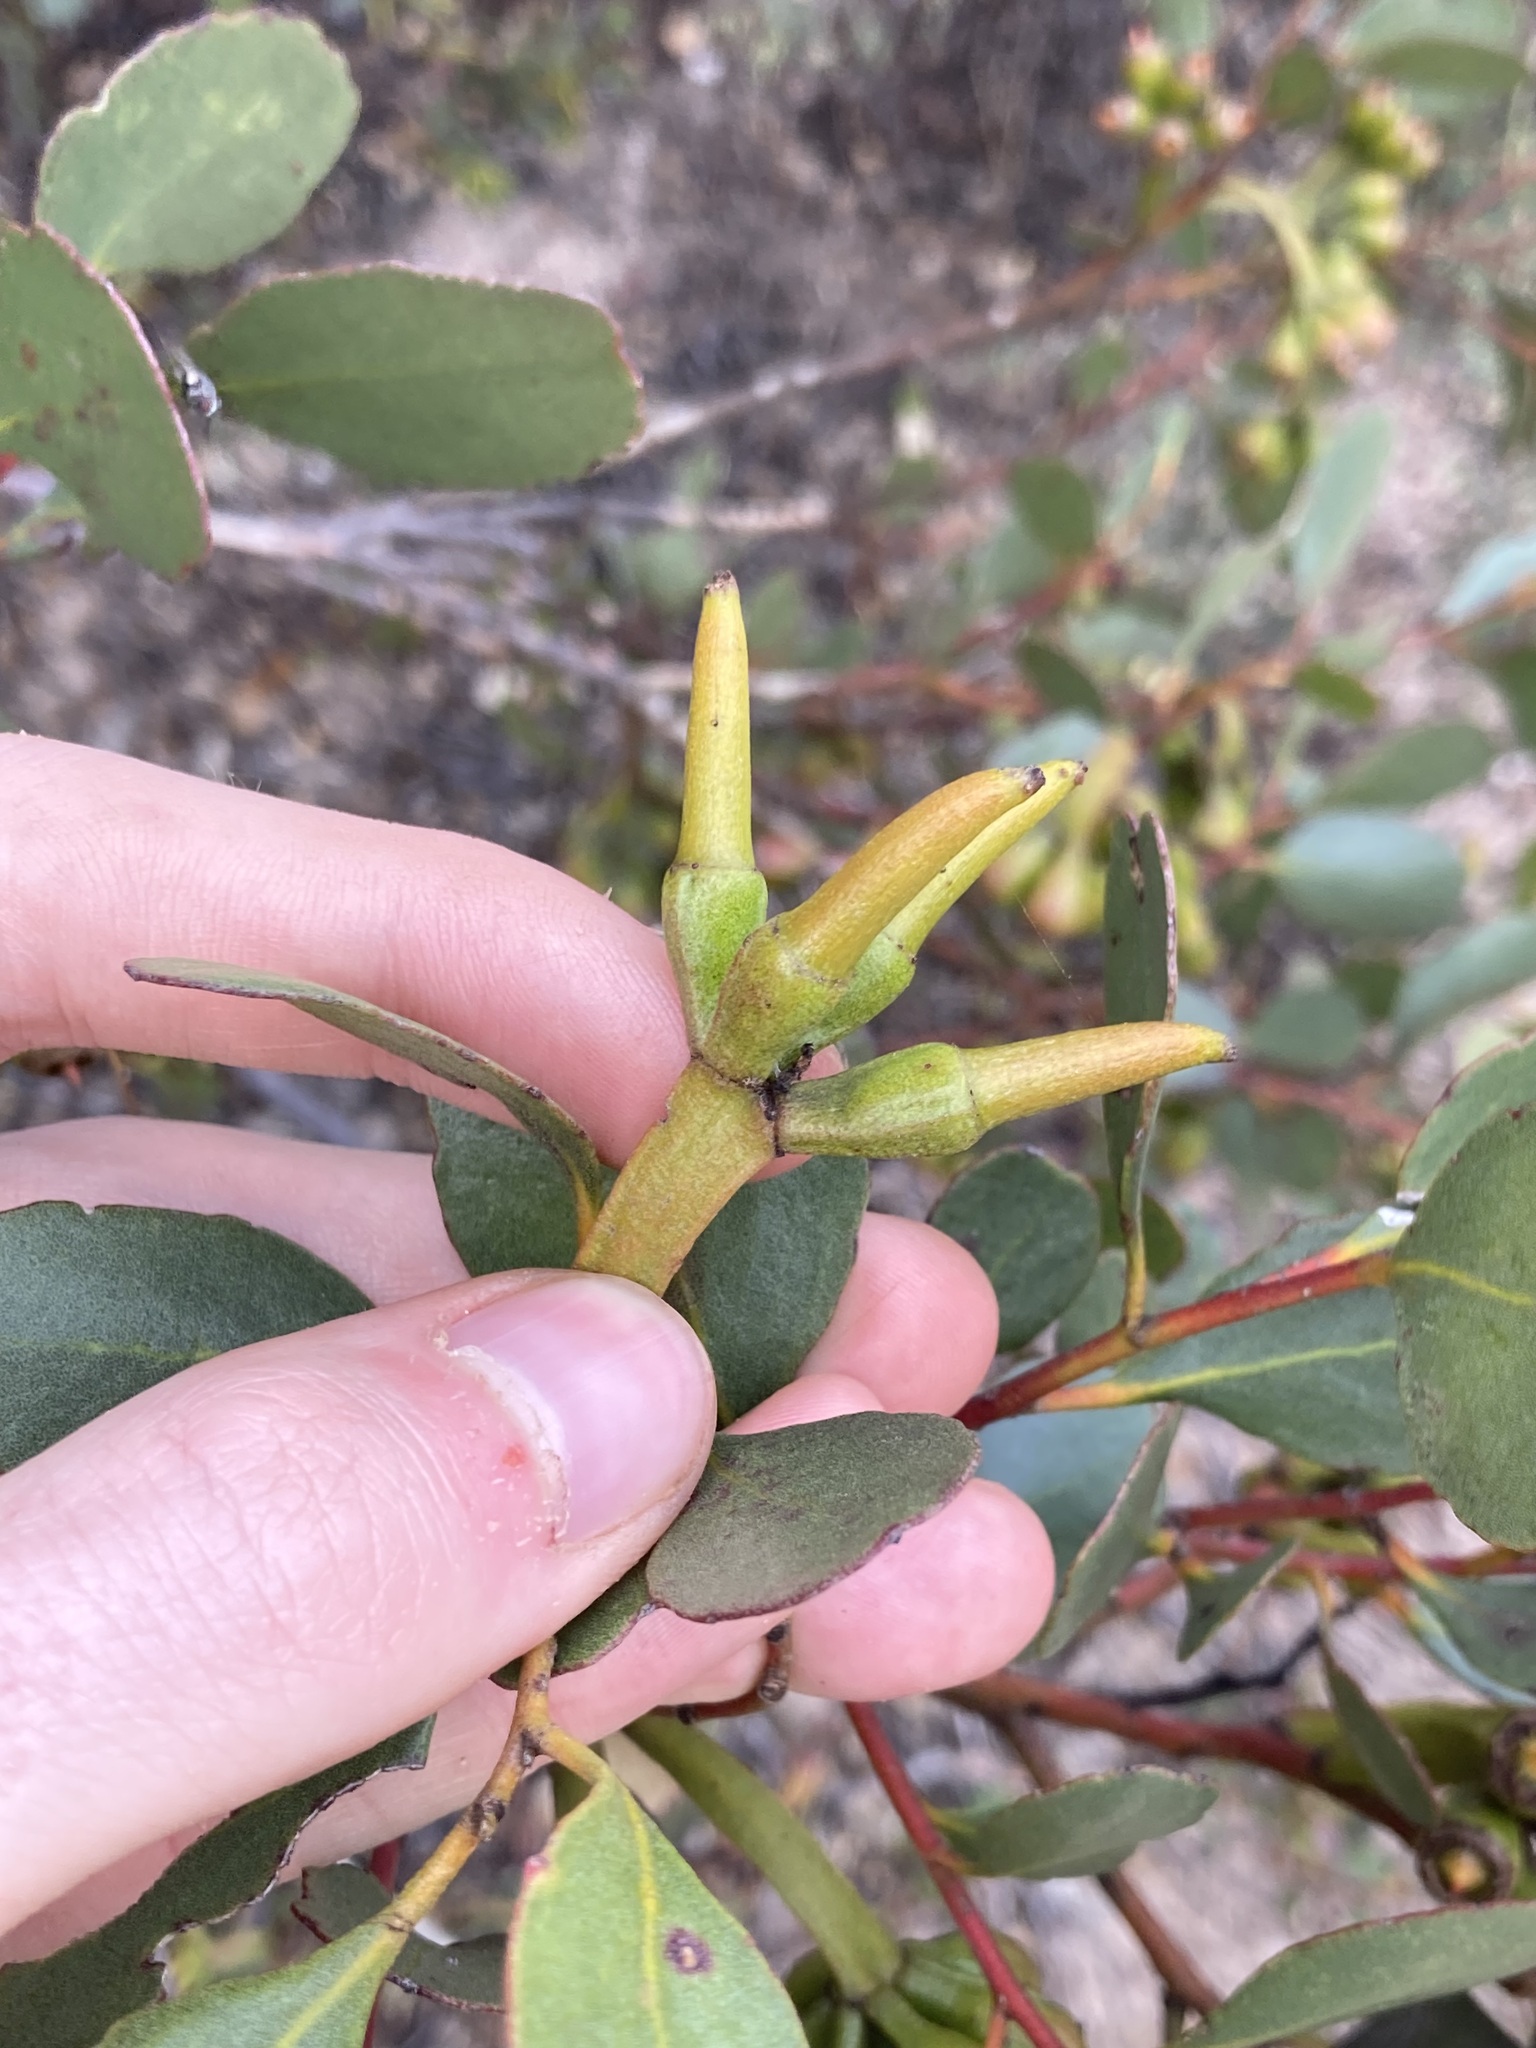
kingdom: Plantae
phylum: Tracheophyta
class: Magnoliopsida
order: Myrtales
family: Myrtaceae
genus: Eucalyptus
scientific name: Eucalyptus platypus
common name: Moort
